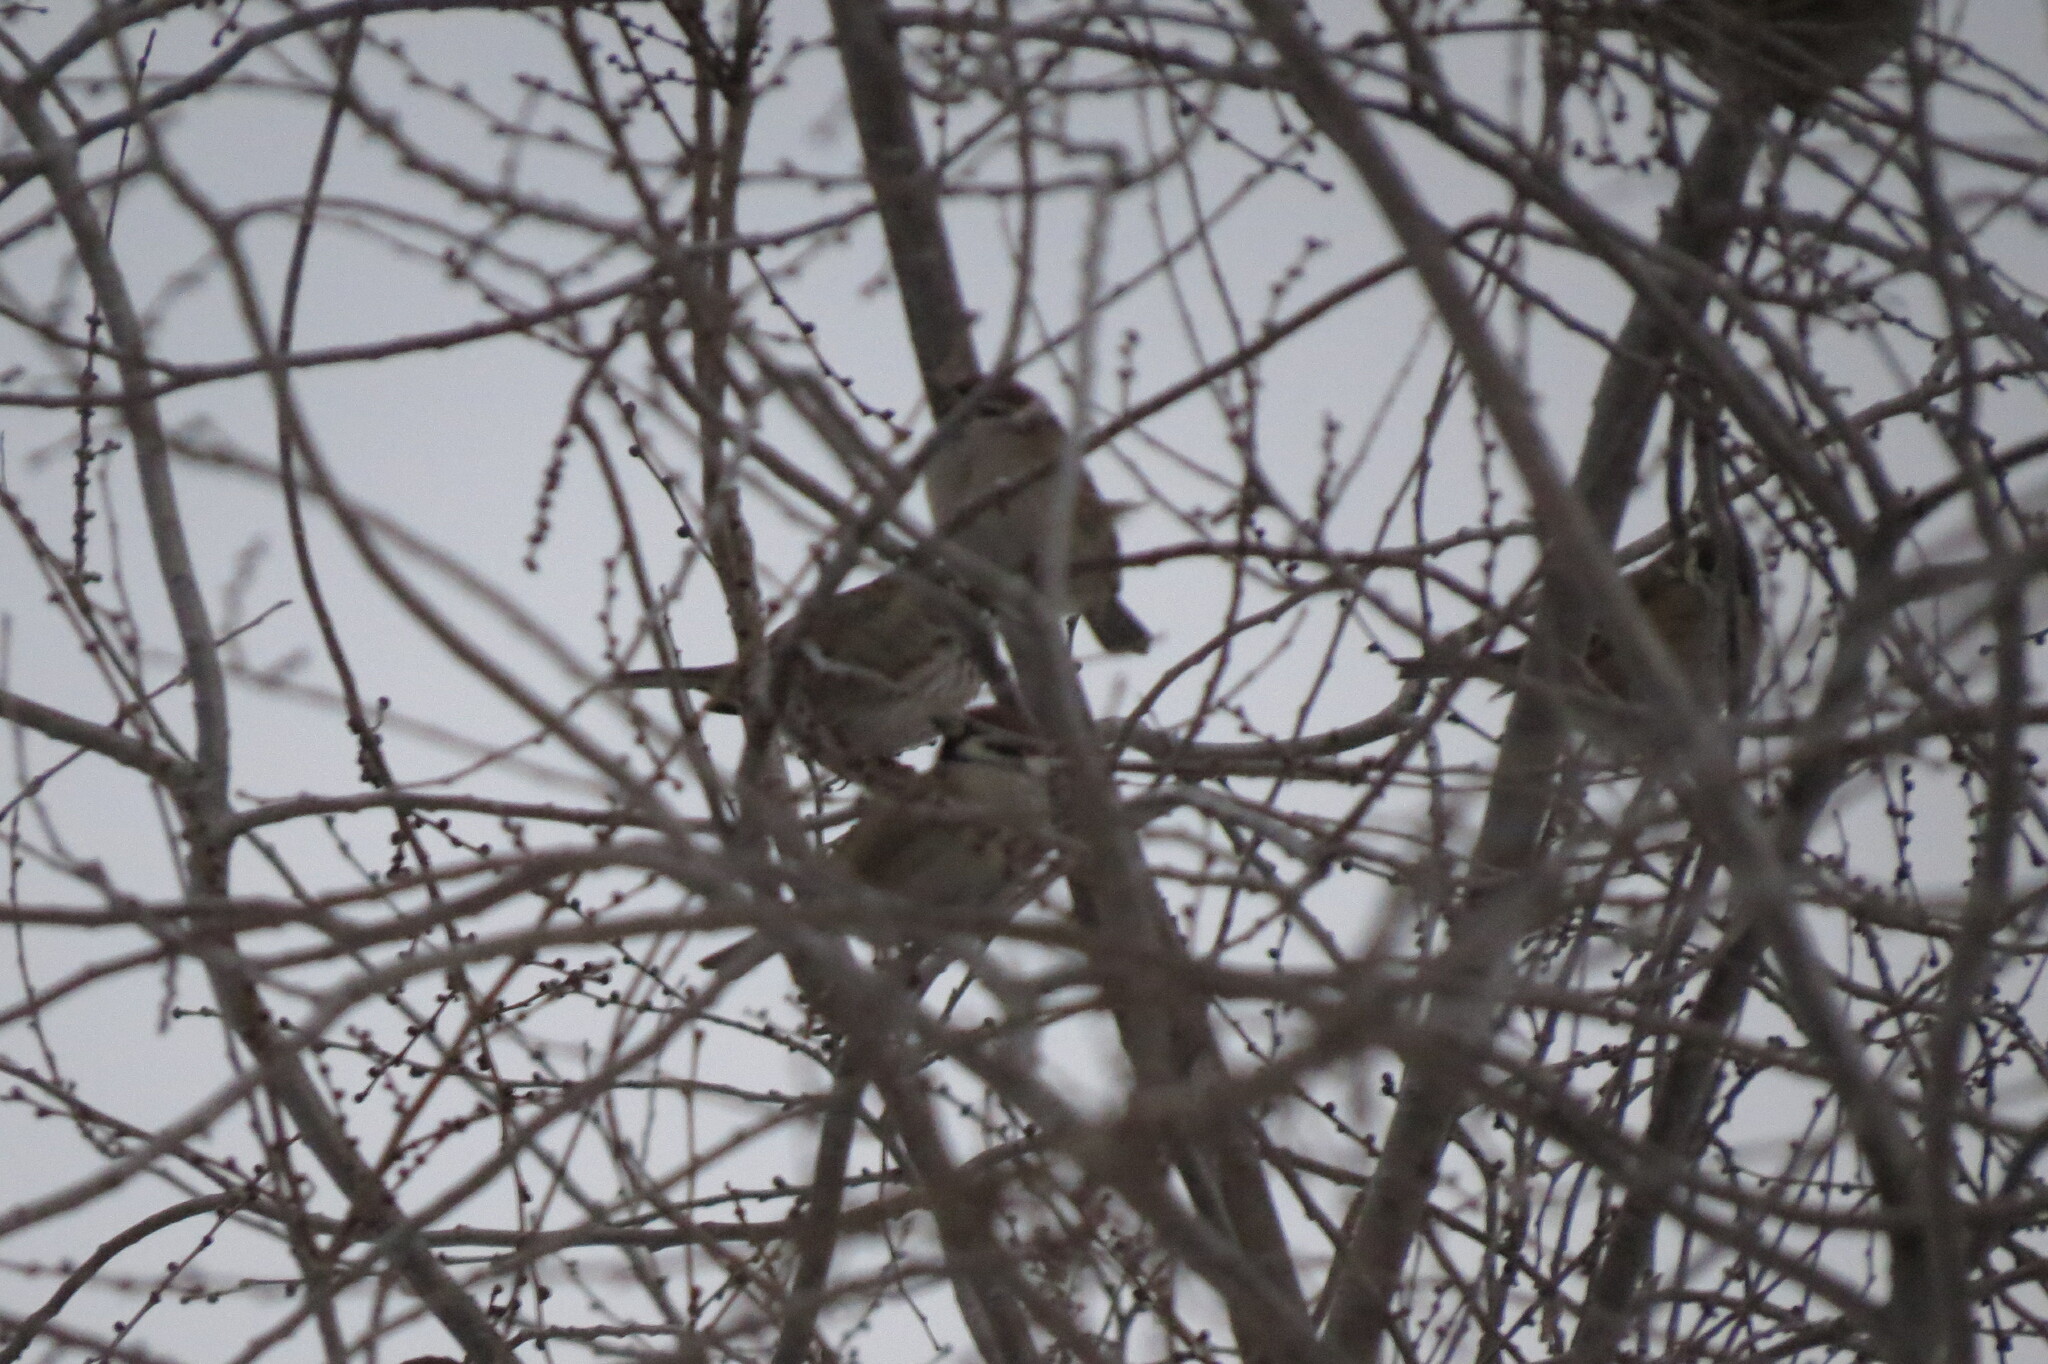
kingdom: Animalia
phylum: Chordata
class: Aves
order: Passeriformes
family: Passeridae
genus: Passer
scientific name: Passer montanus
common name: Eurasian tree sparrow
